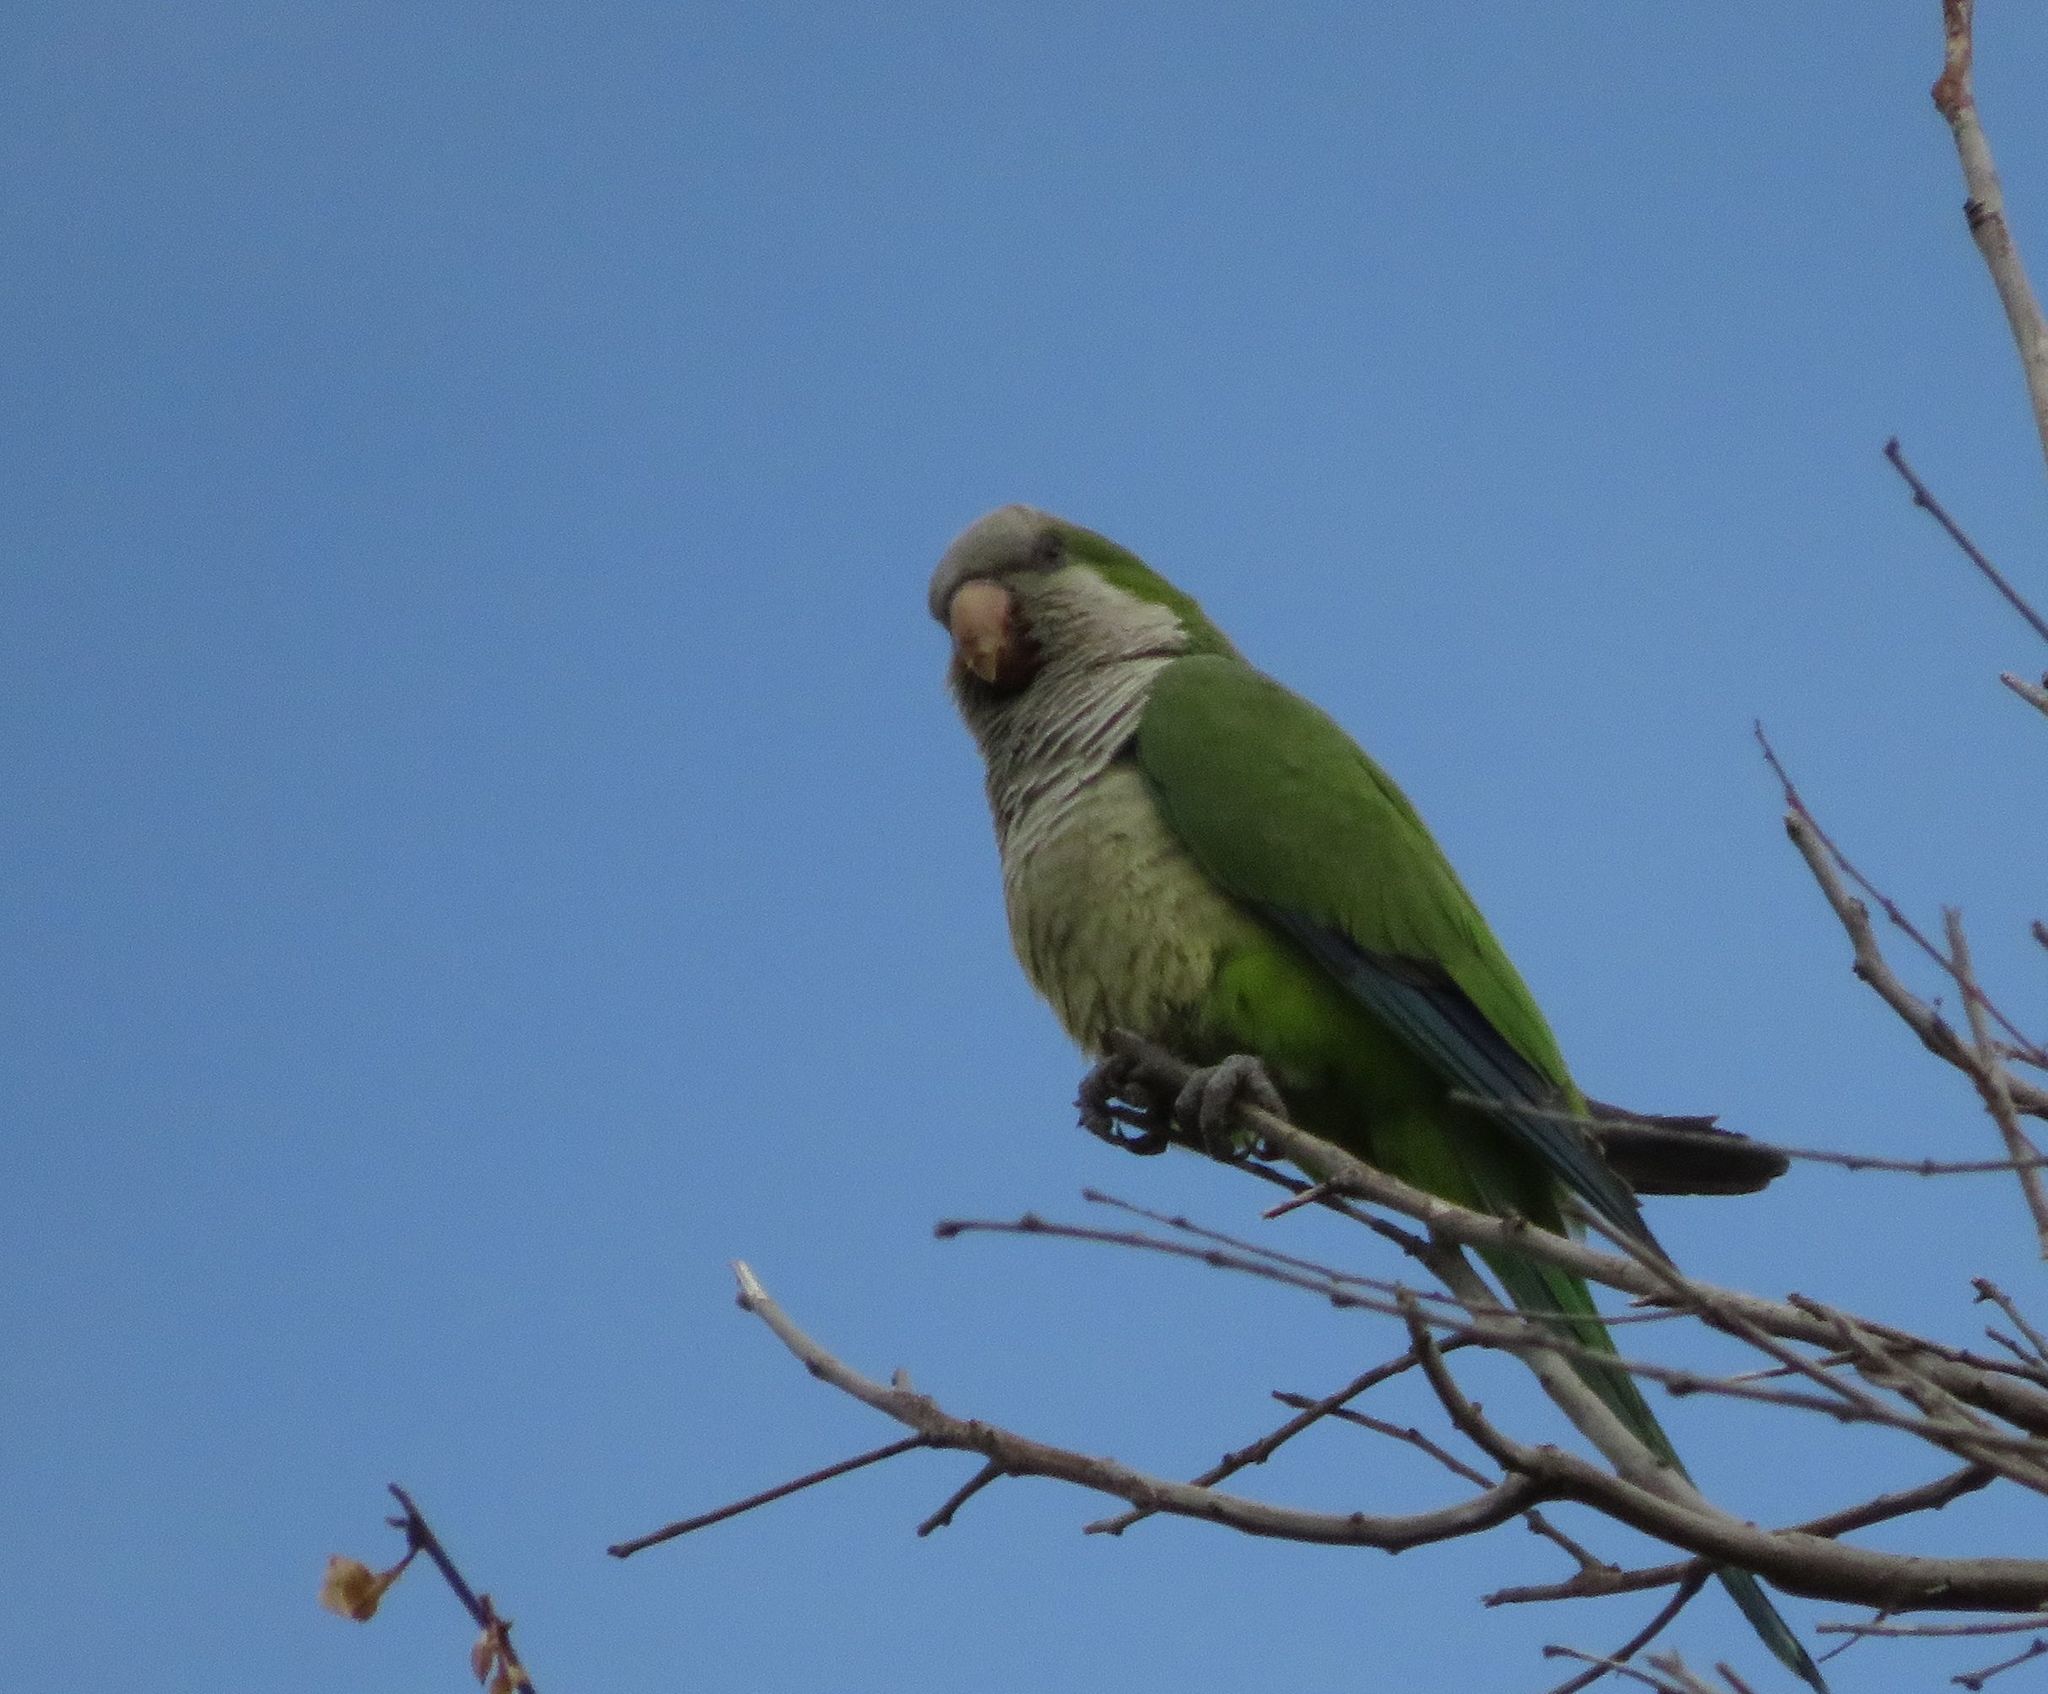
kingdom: Animalia
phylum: Chordata
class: Aves
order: Psittaciformes
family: Psittacidae
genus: Myiopsitta
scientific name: Myiopsitta monachus
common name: Monk parakeet
